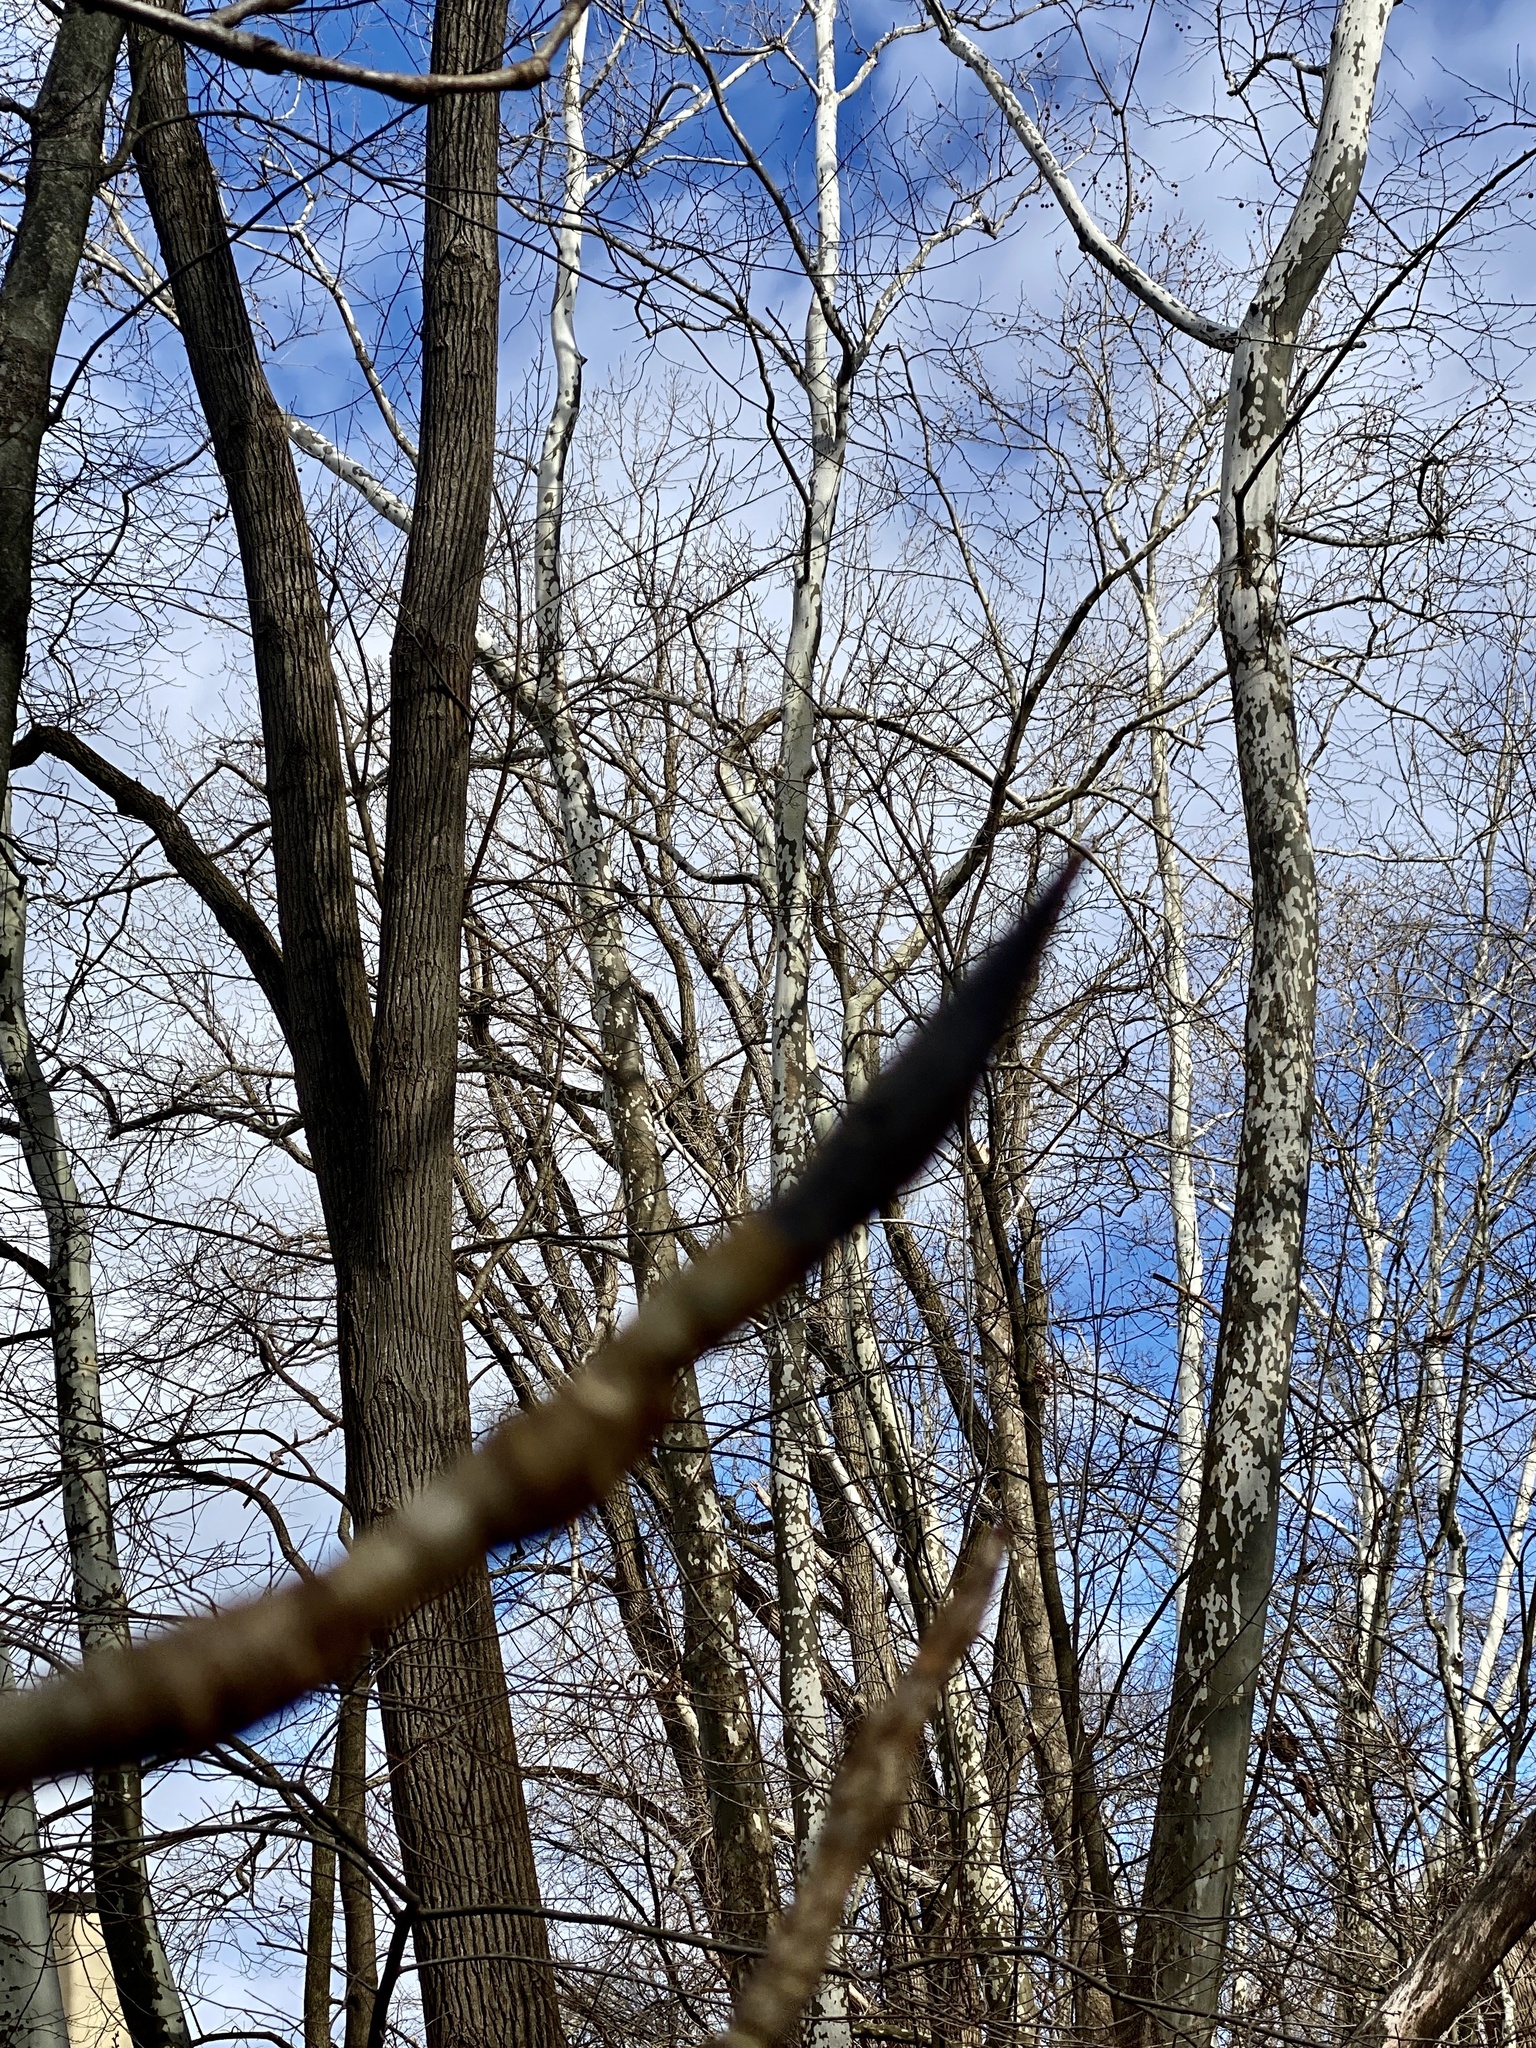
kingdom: Plantae
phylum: Tracheophyta
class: Magnoliopsida
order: Magnoliales
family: Magnoliaceae
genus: Magnolia
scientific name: Magnolia tripetala
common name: Umbrella magnolia
